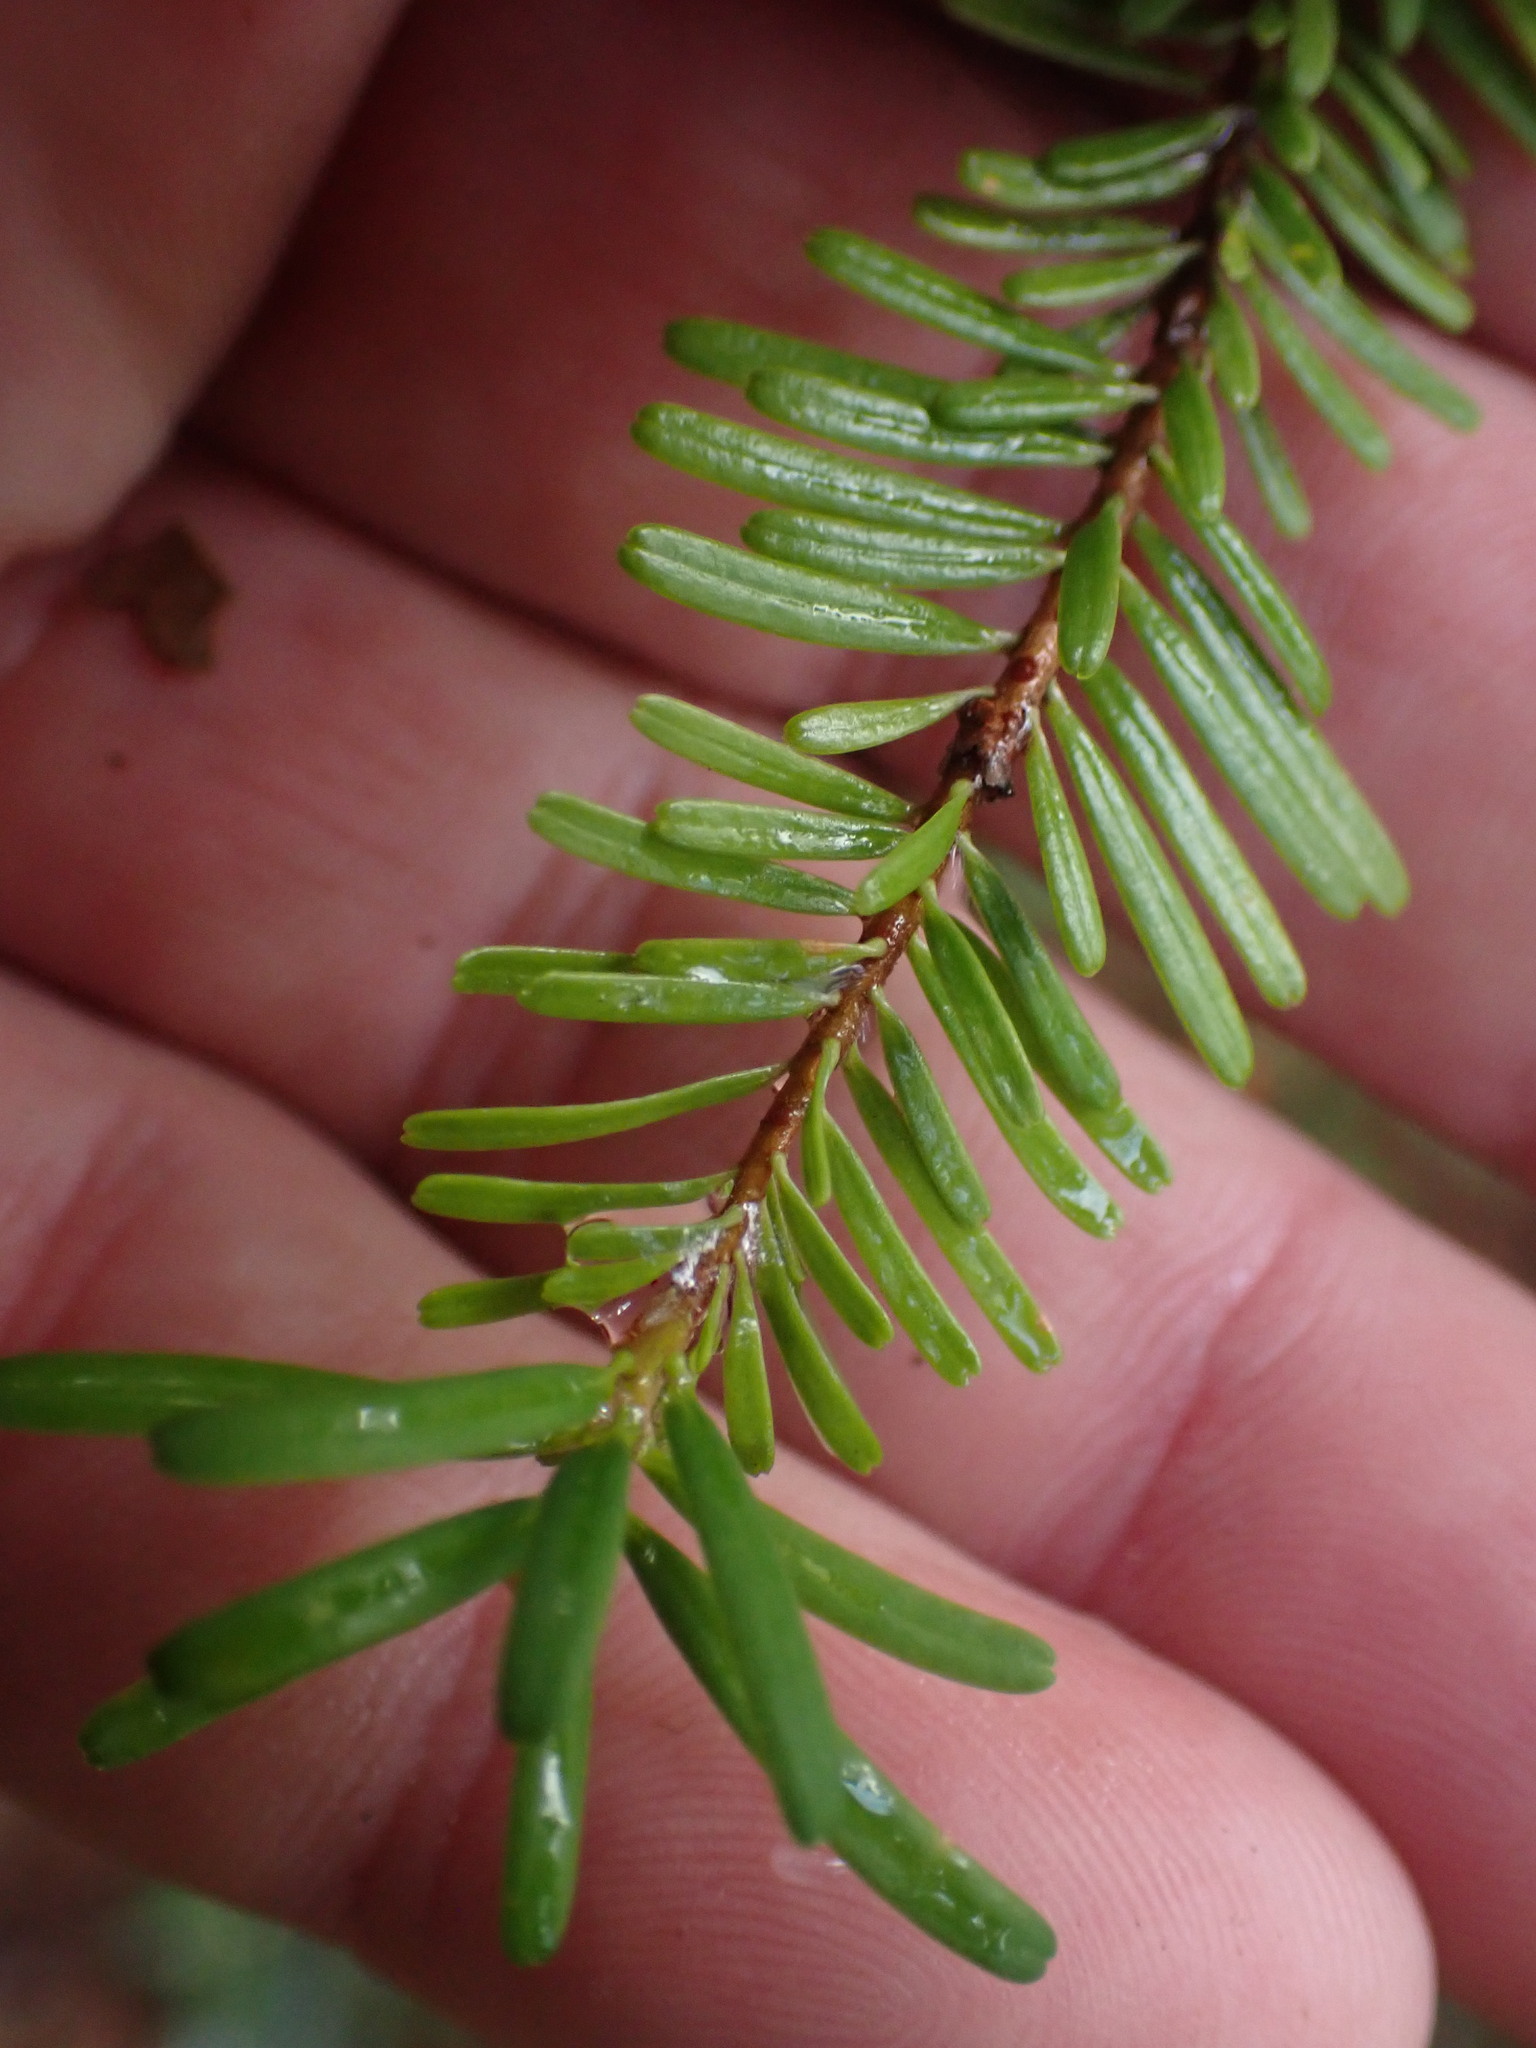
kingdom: Plantae
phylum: Tracheophyta
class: Pinopsida
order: Pinales
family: Pinaceae
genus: Abies
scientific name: Abies amabilis
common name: Pacific silver fir
